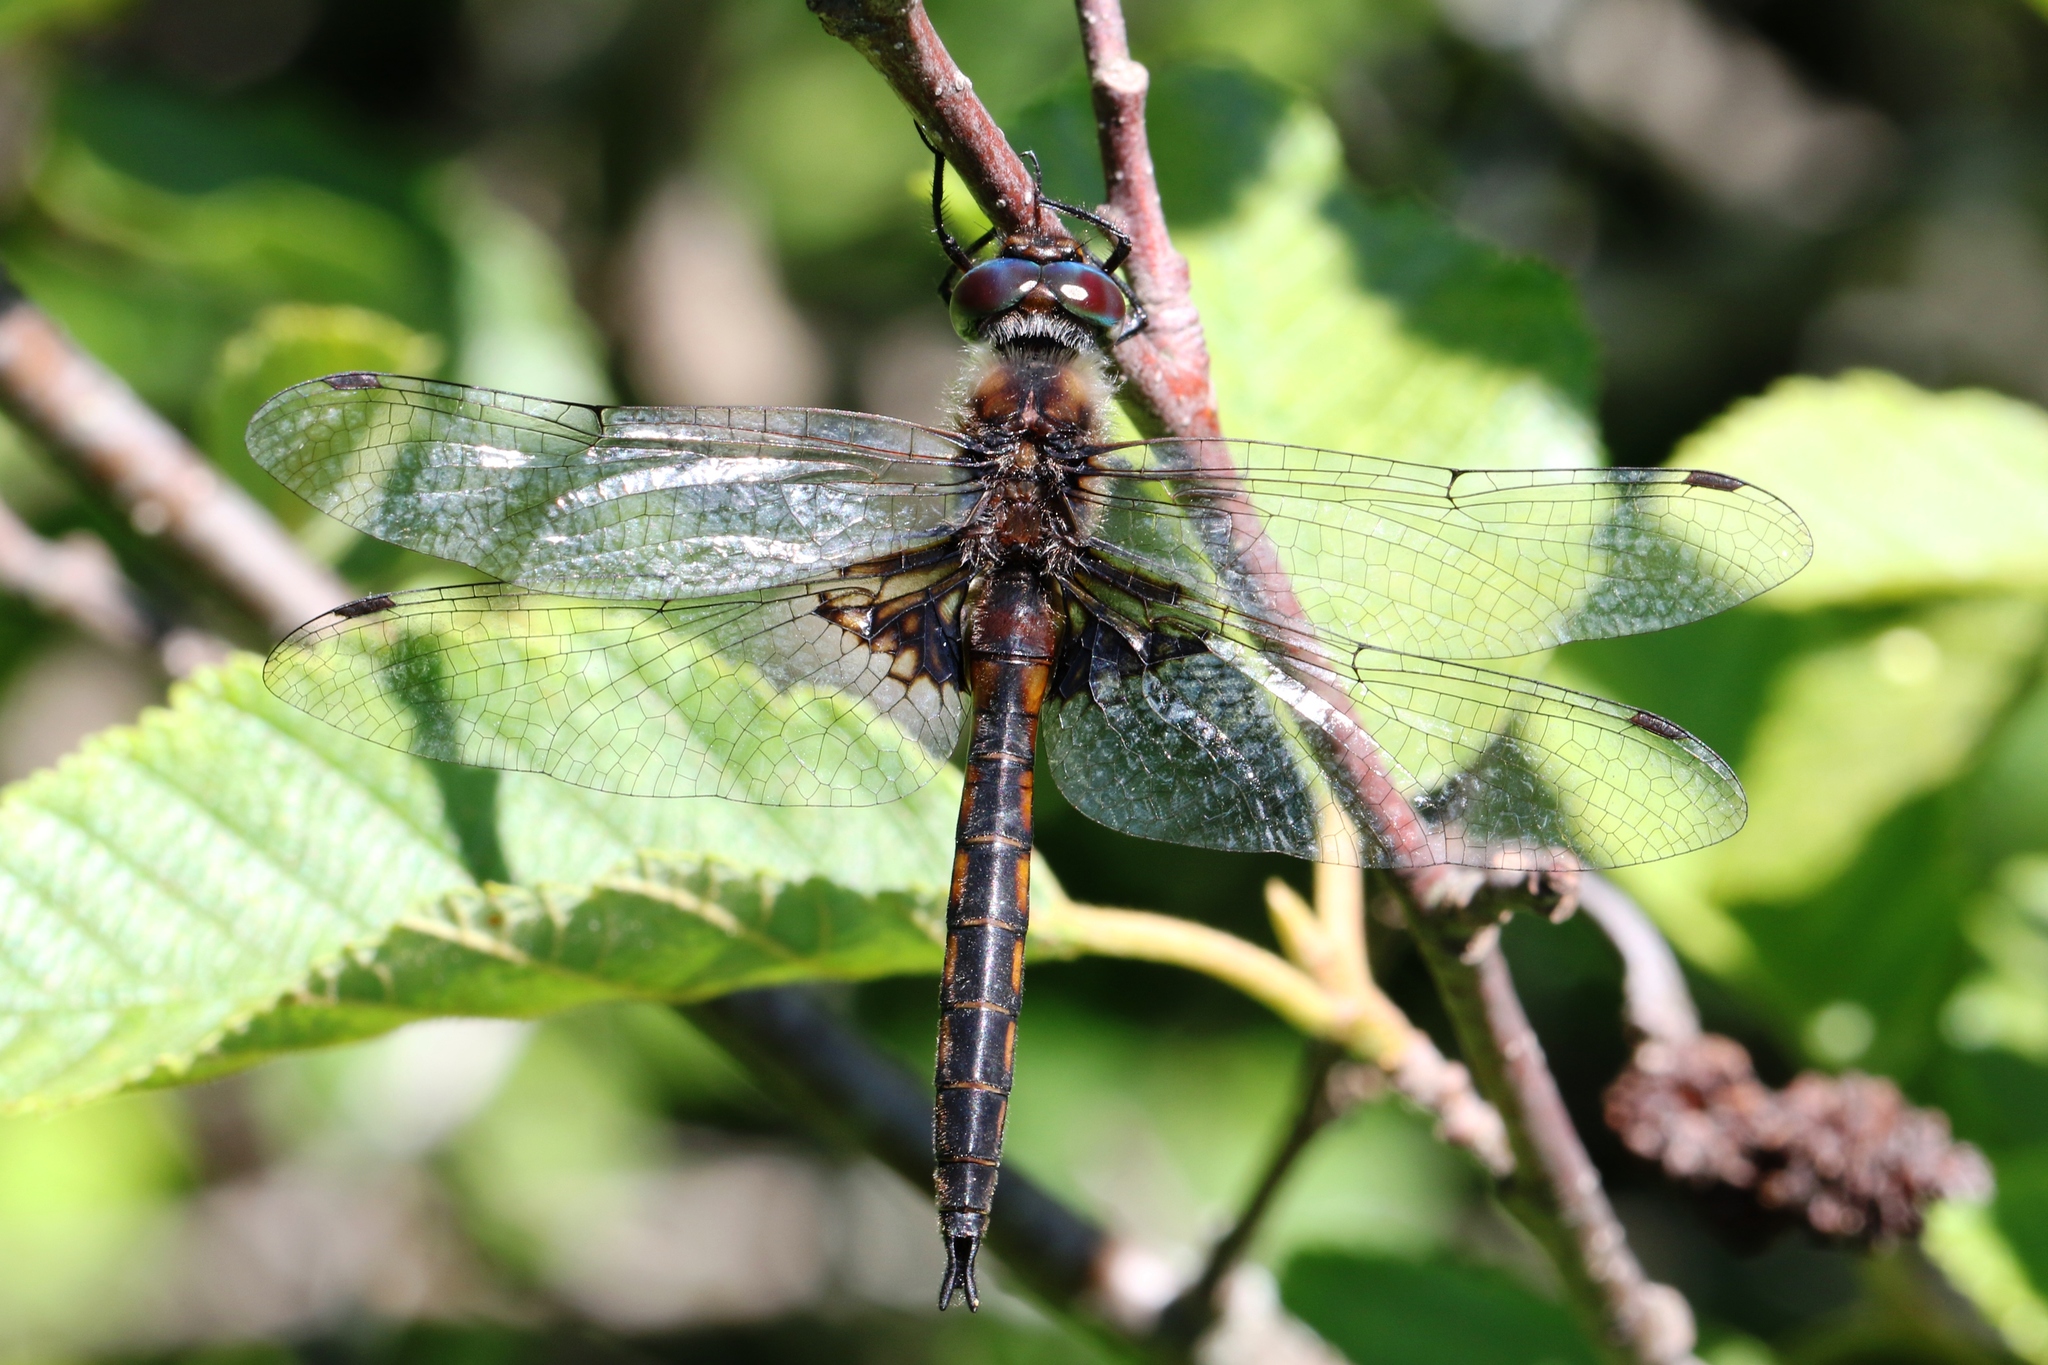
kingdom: Animalia
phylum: Arthropoda
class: Insecta
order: Odonata
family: Corduliidae
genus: Epitheca
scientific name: Epitheca cynosura
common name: Common baskettail
